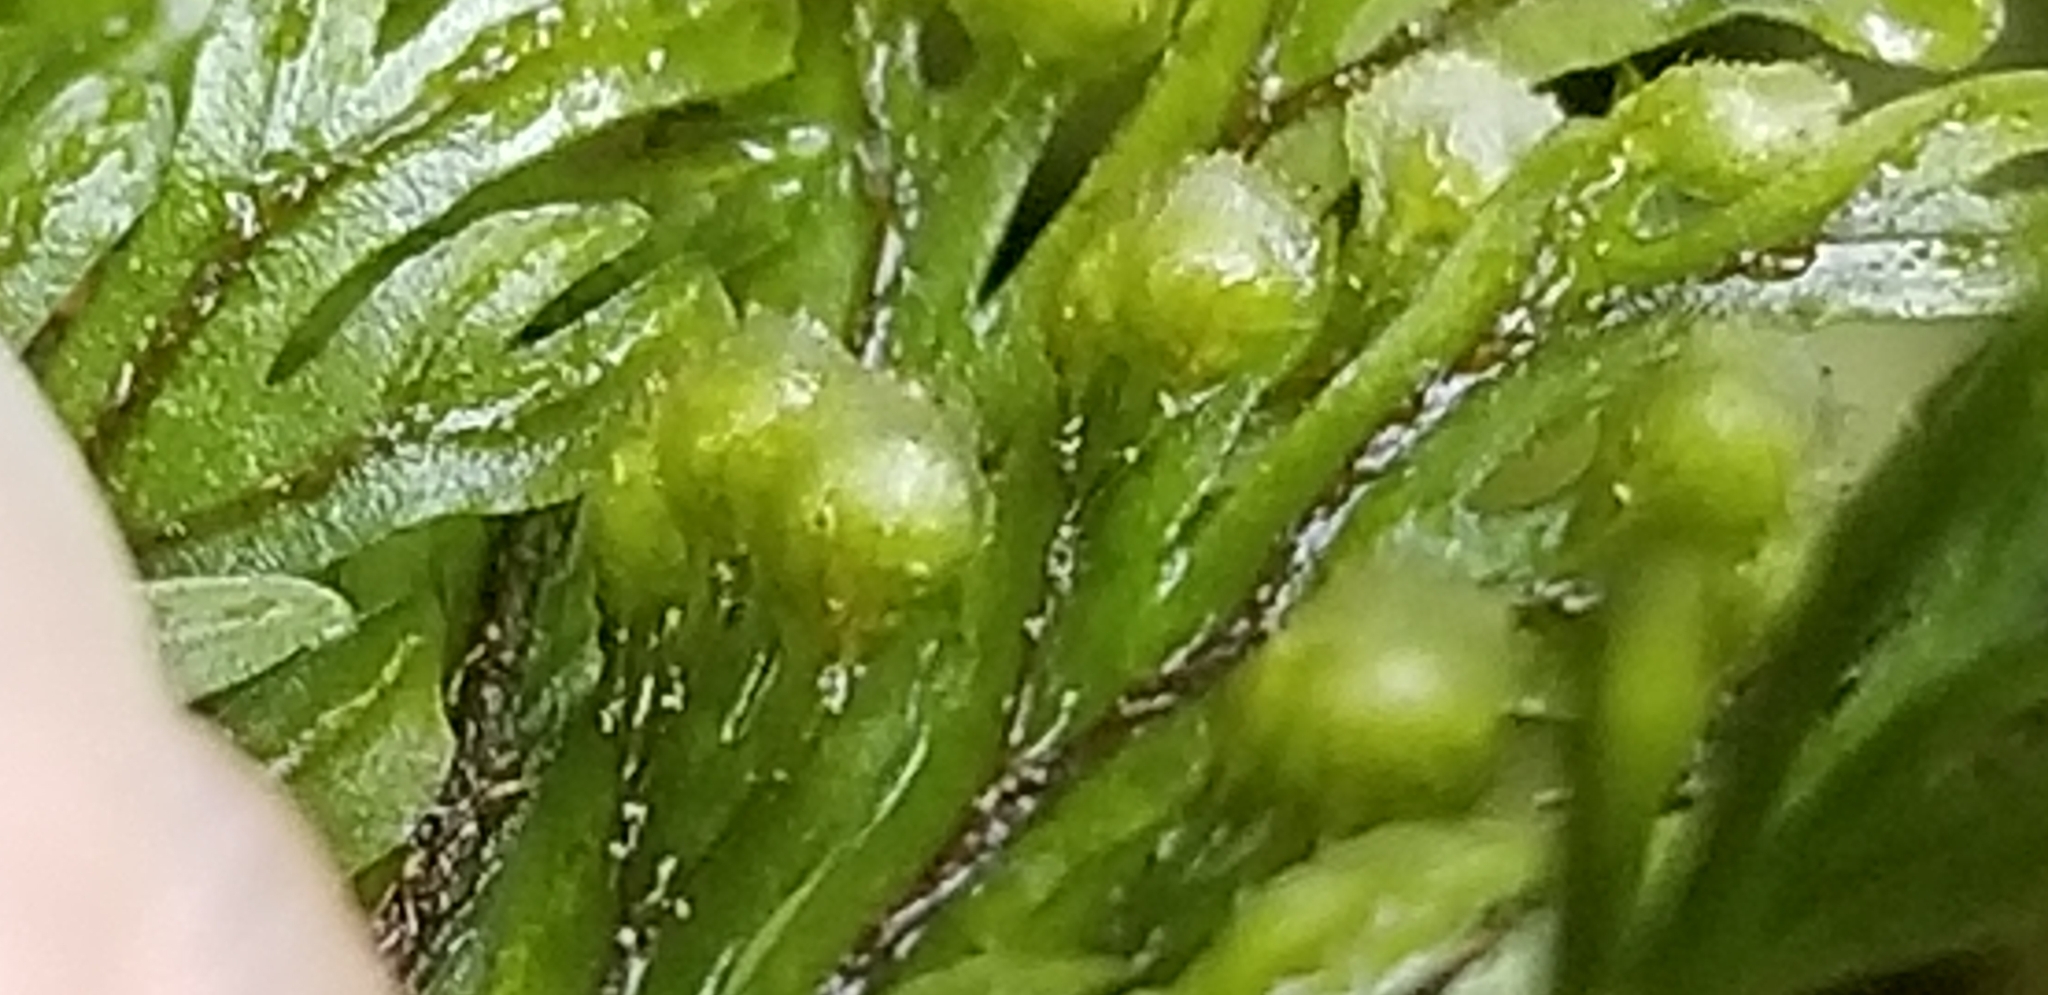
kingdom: Plantae
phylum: Tracheophyta
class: Polypodiopsida
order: Hymenophyllales
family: Hymenophyllaceae
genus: Hymenophyllum
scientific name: Hymenophyllum scabrum
